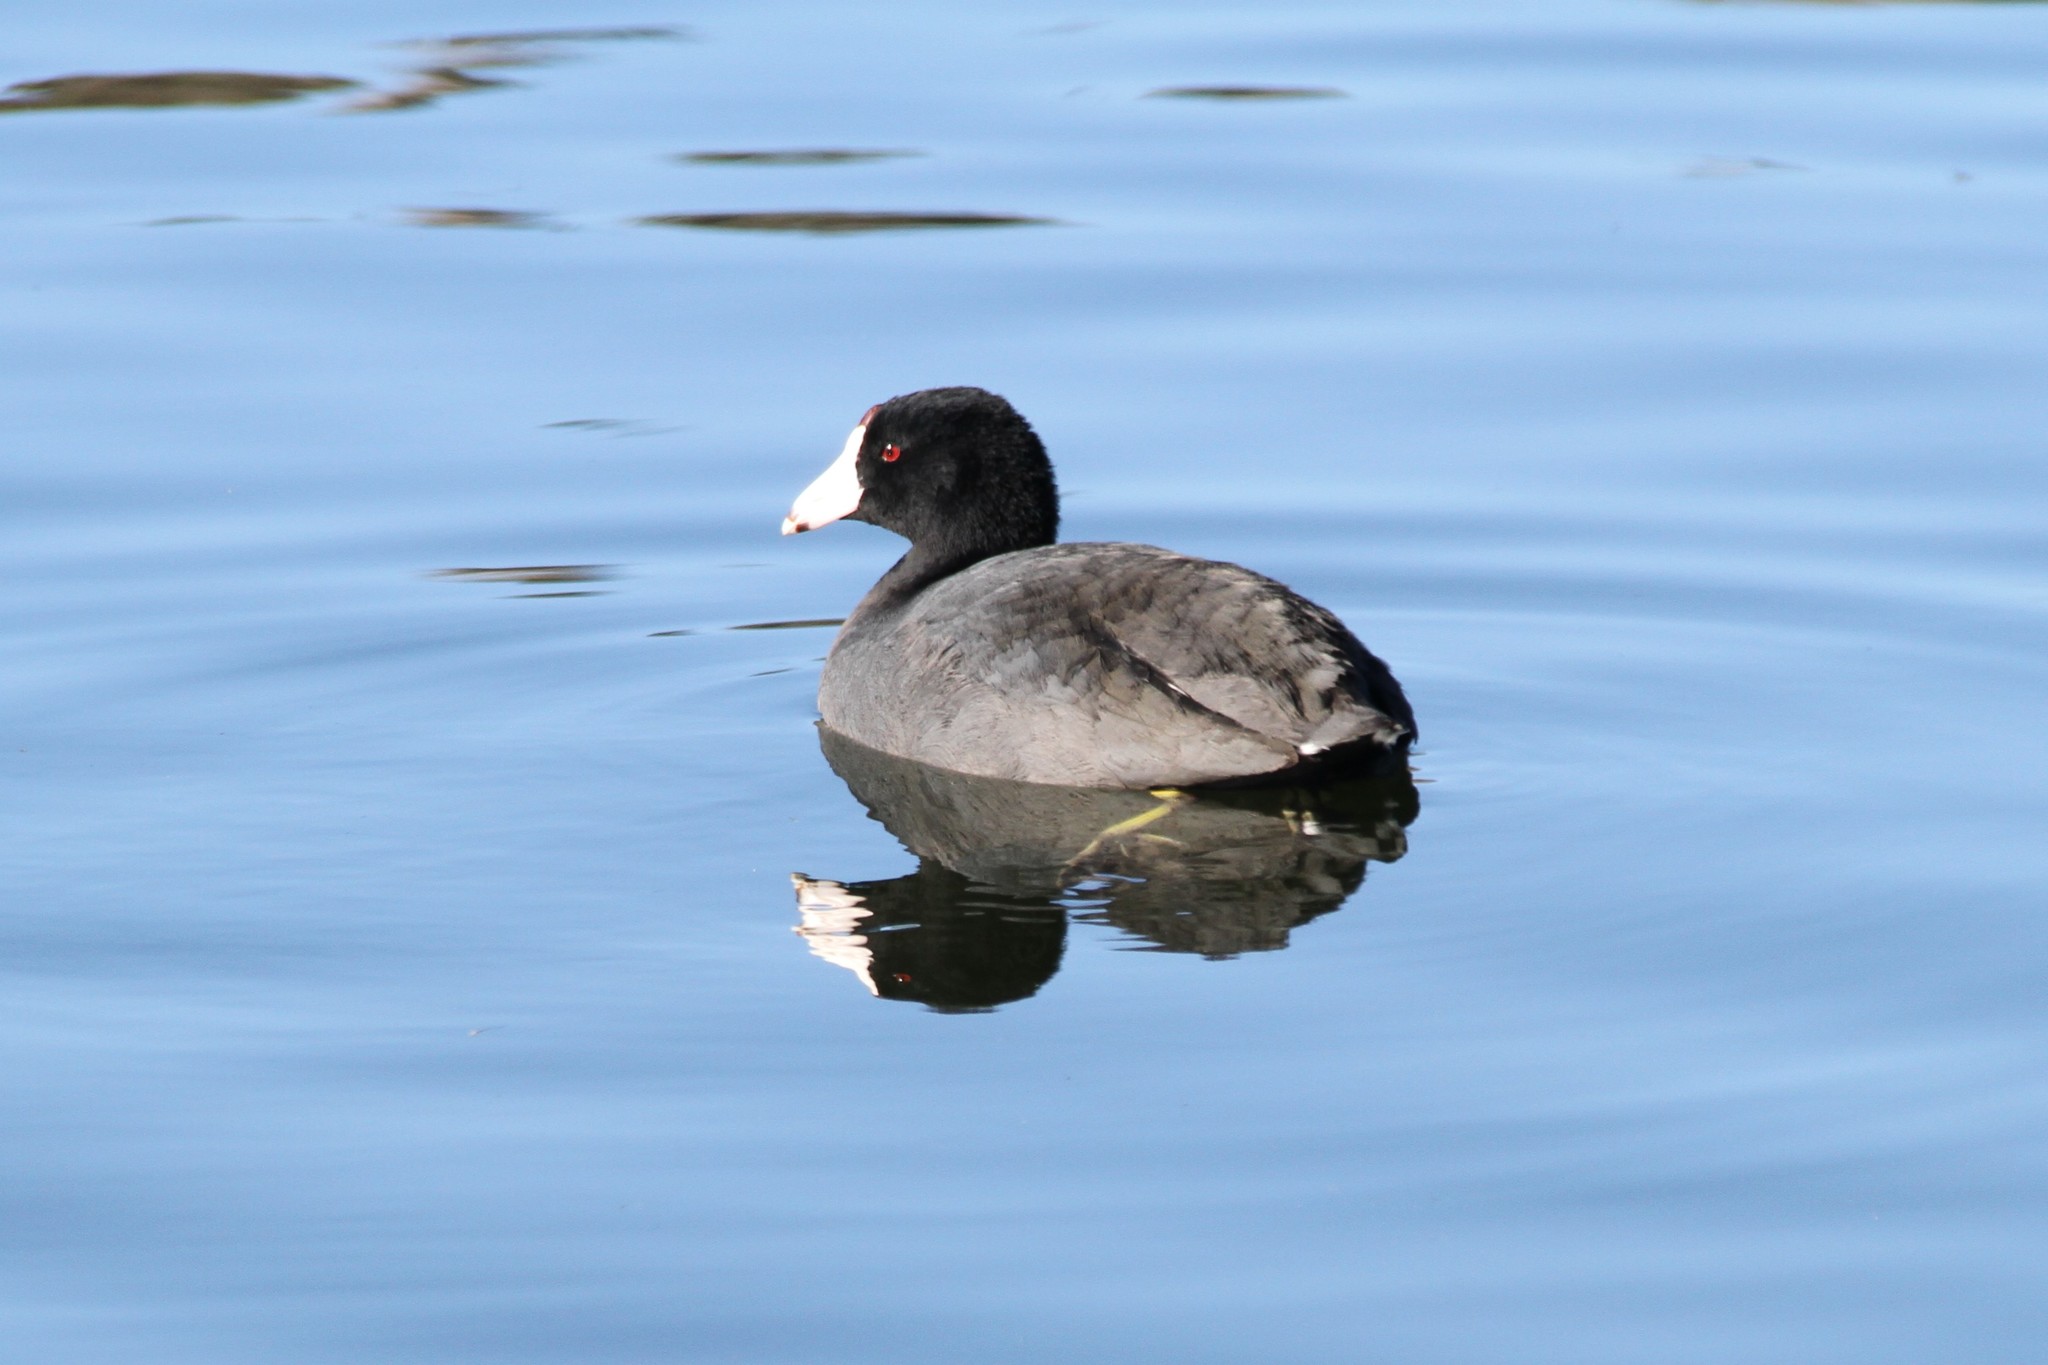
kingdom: Animalia
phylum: Chordata
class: Aves
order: Gruiformes
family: Rallidae
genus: Fulica
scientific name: Fulica americana
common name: American coot
